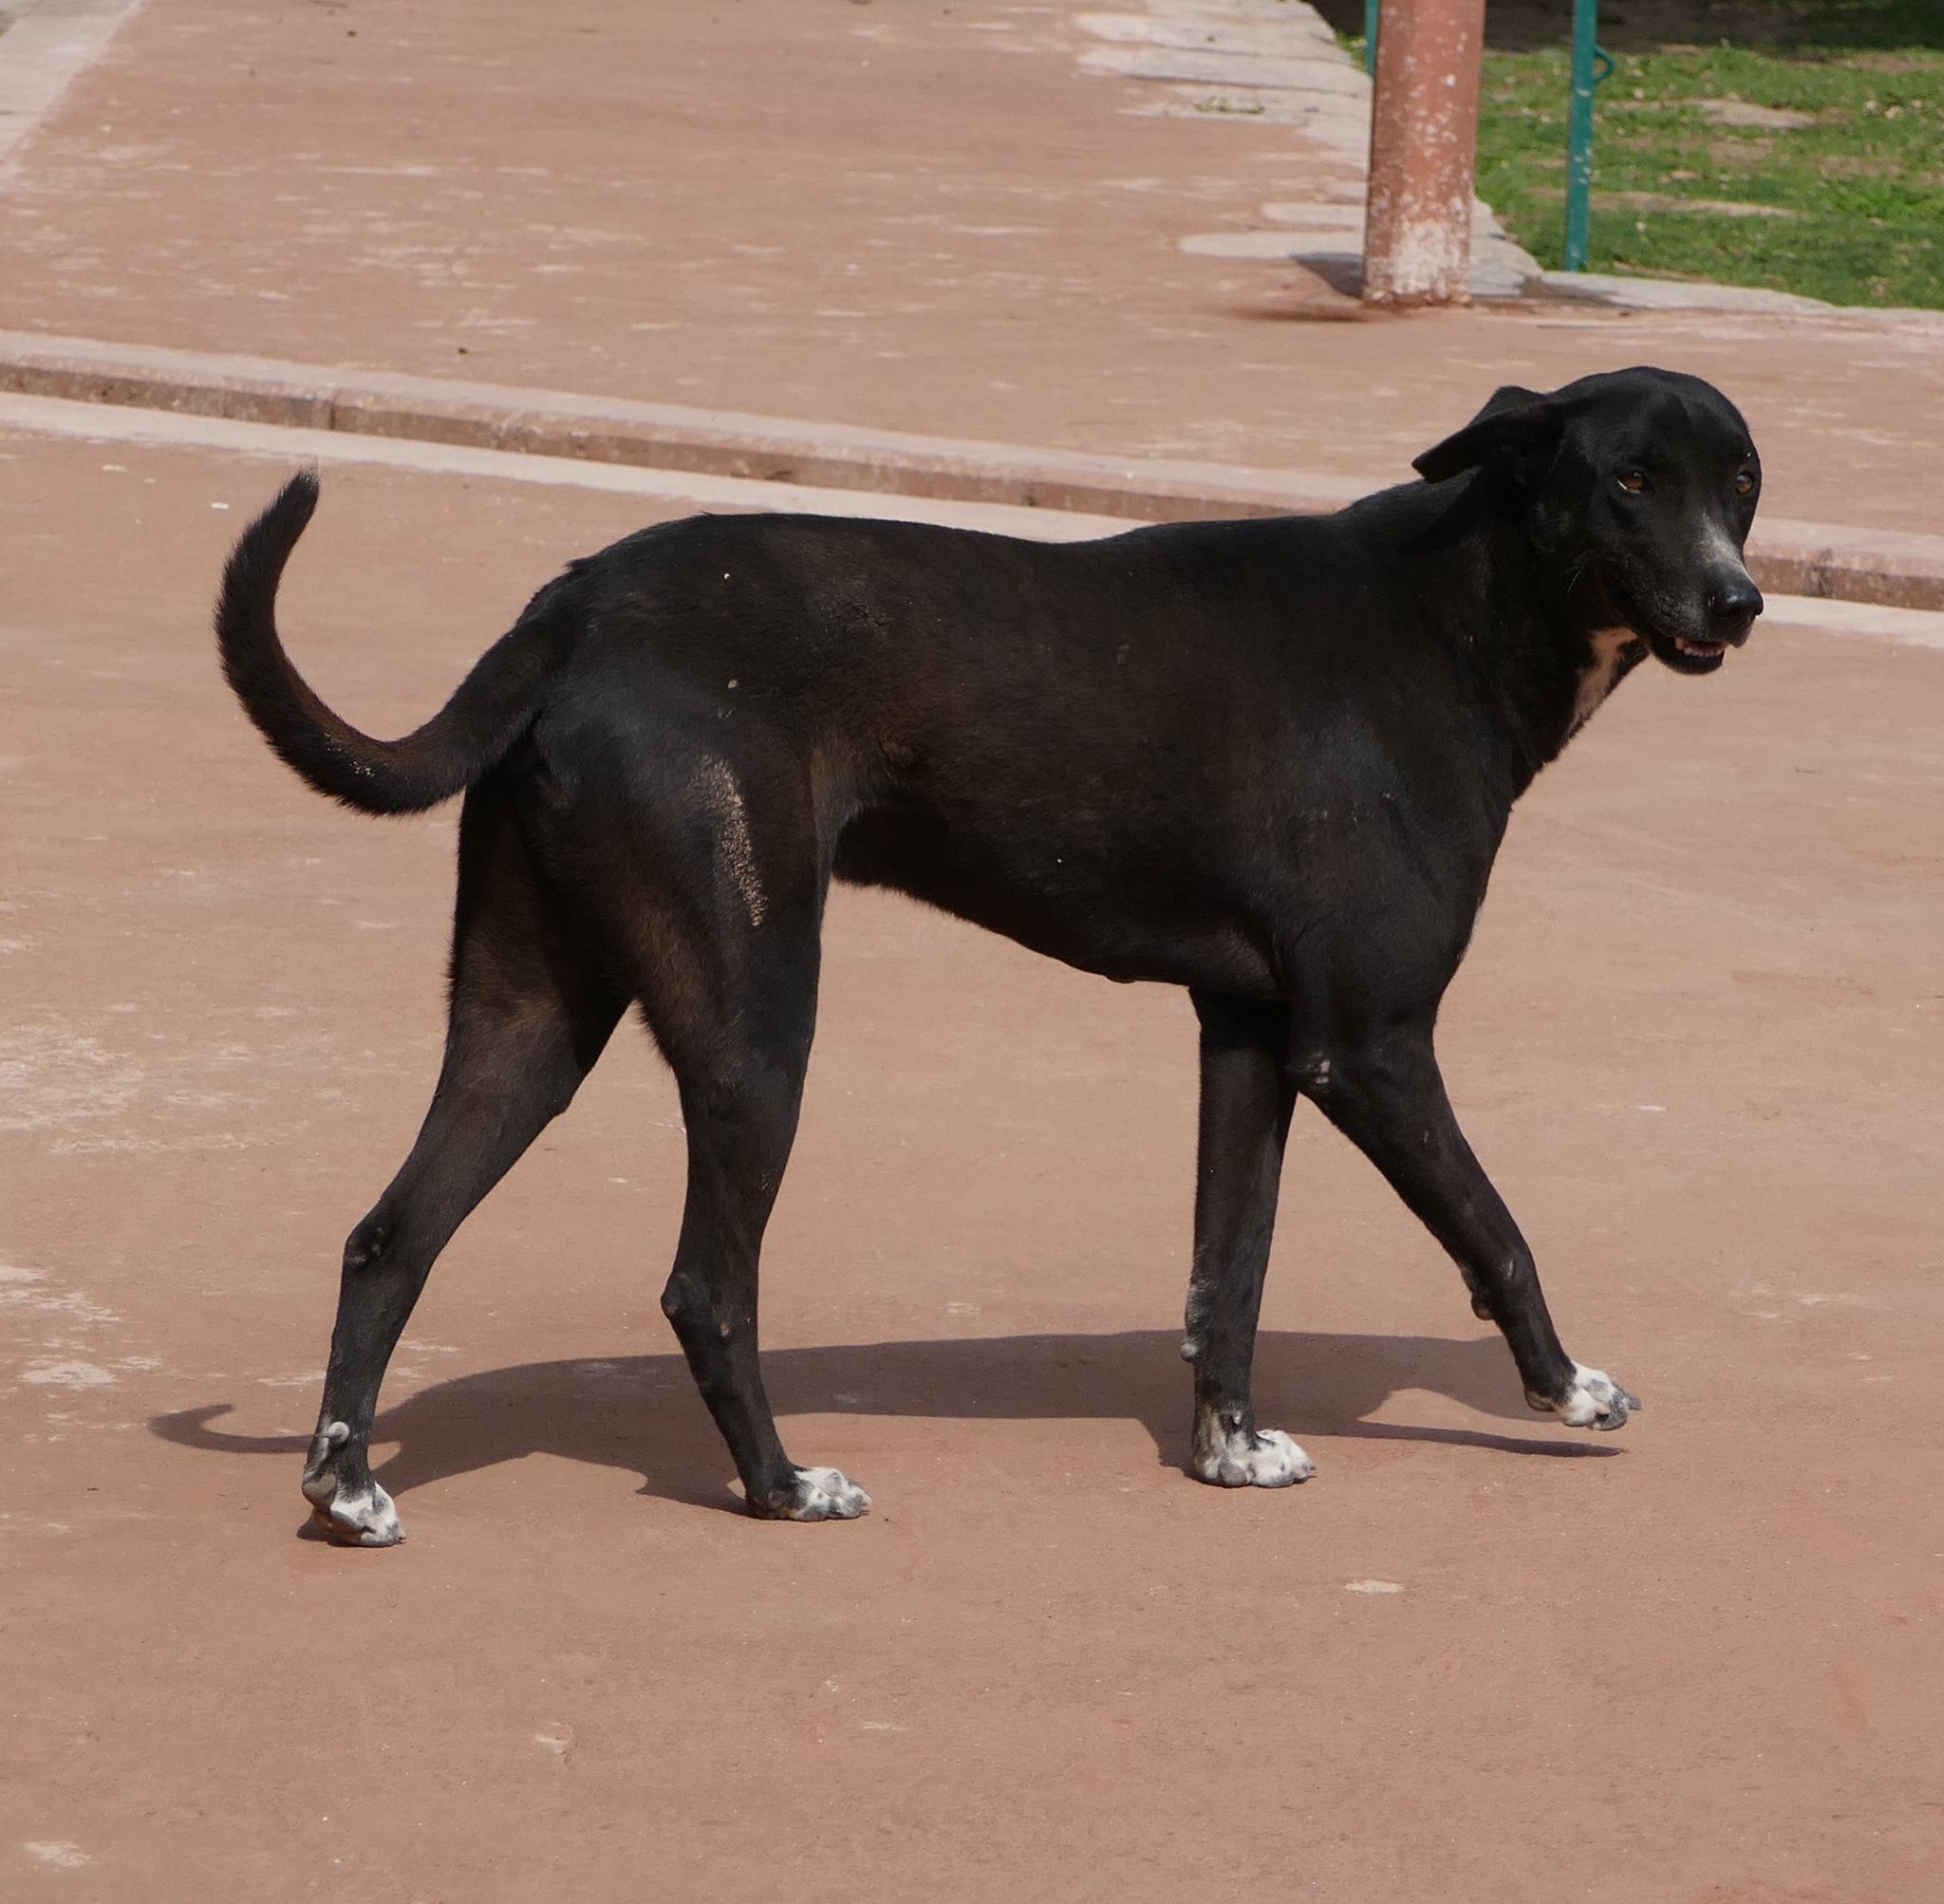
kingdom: Animalia
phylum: Chordata
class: Mammalia
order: Carnivora
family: Canidae
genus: Canis
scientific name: Canis lupus
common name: Gray wolf
